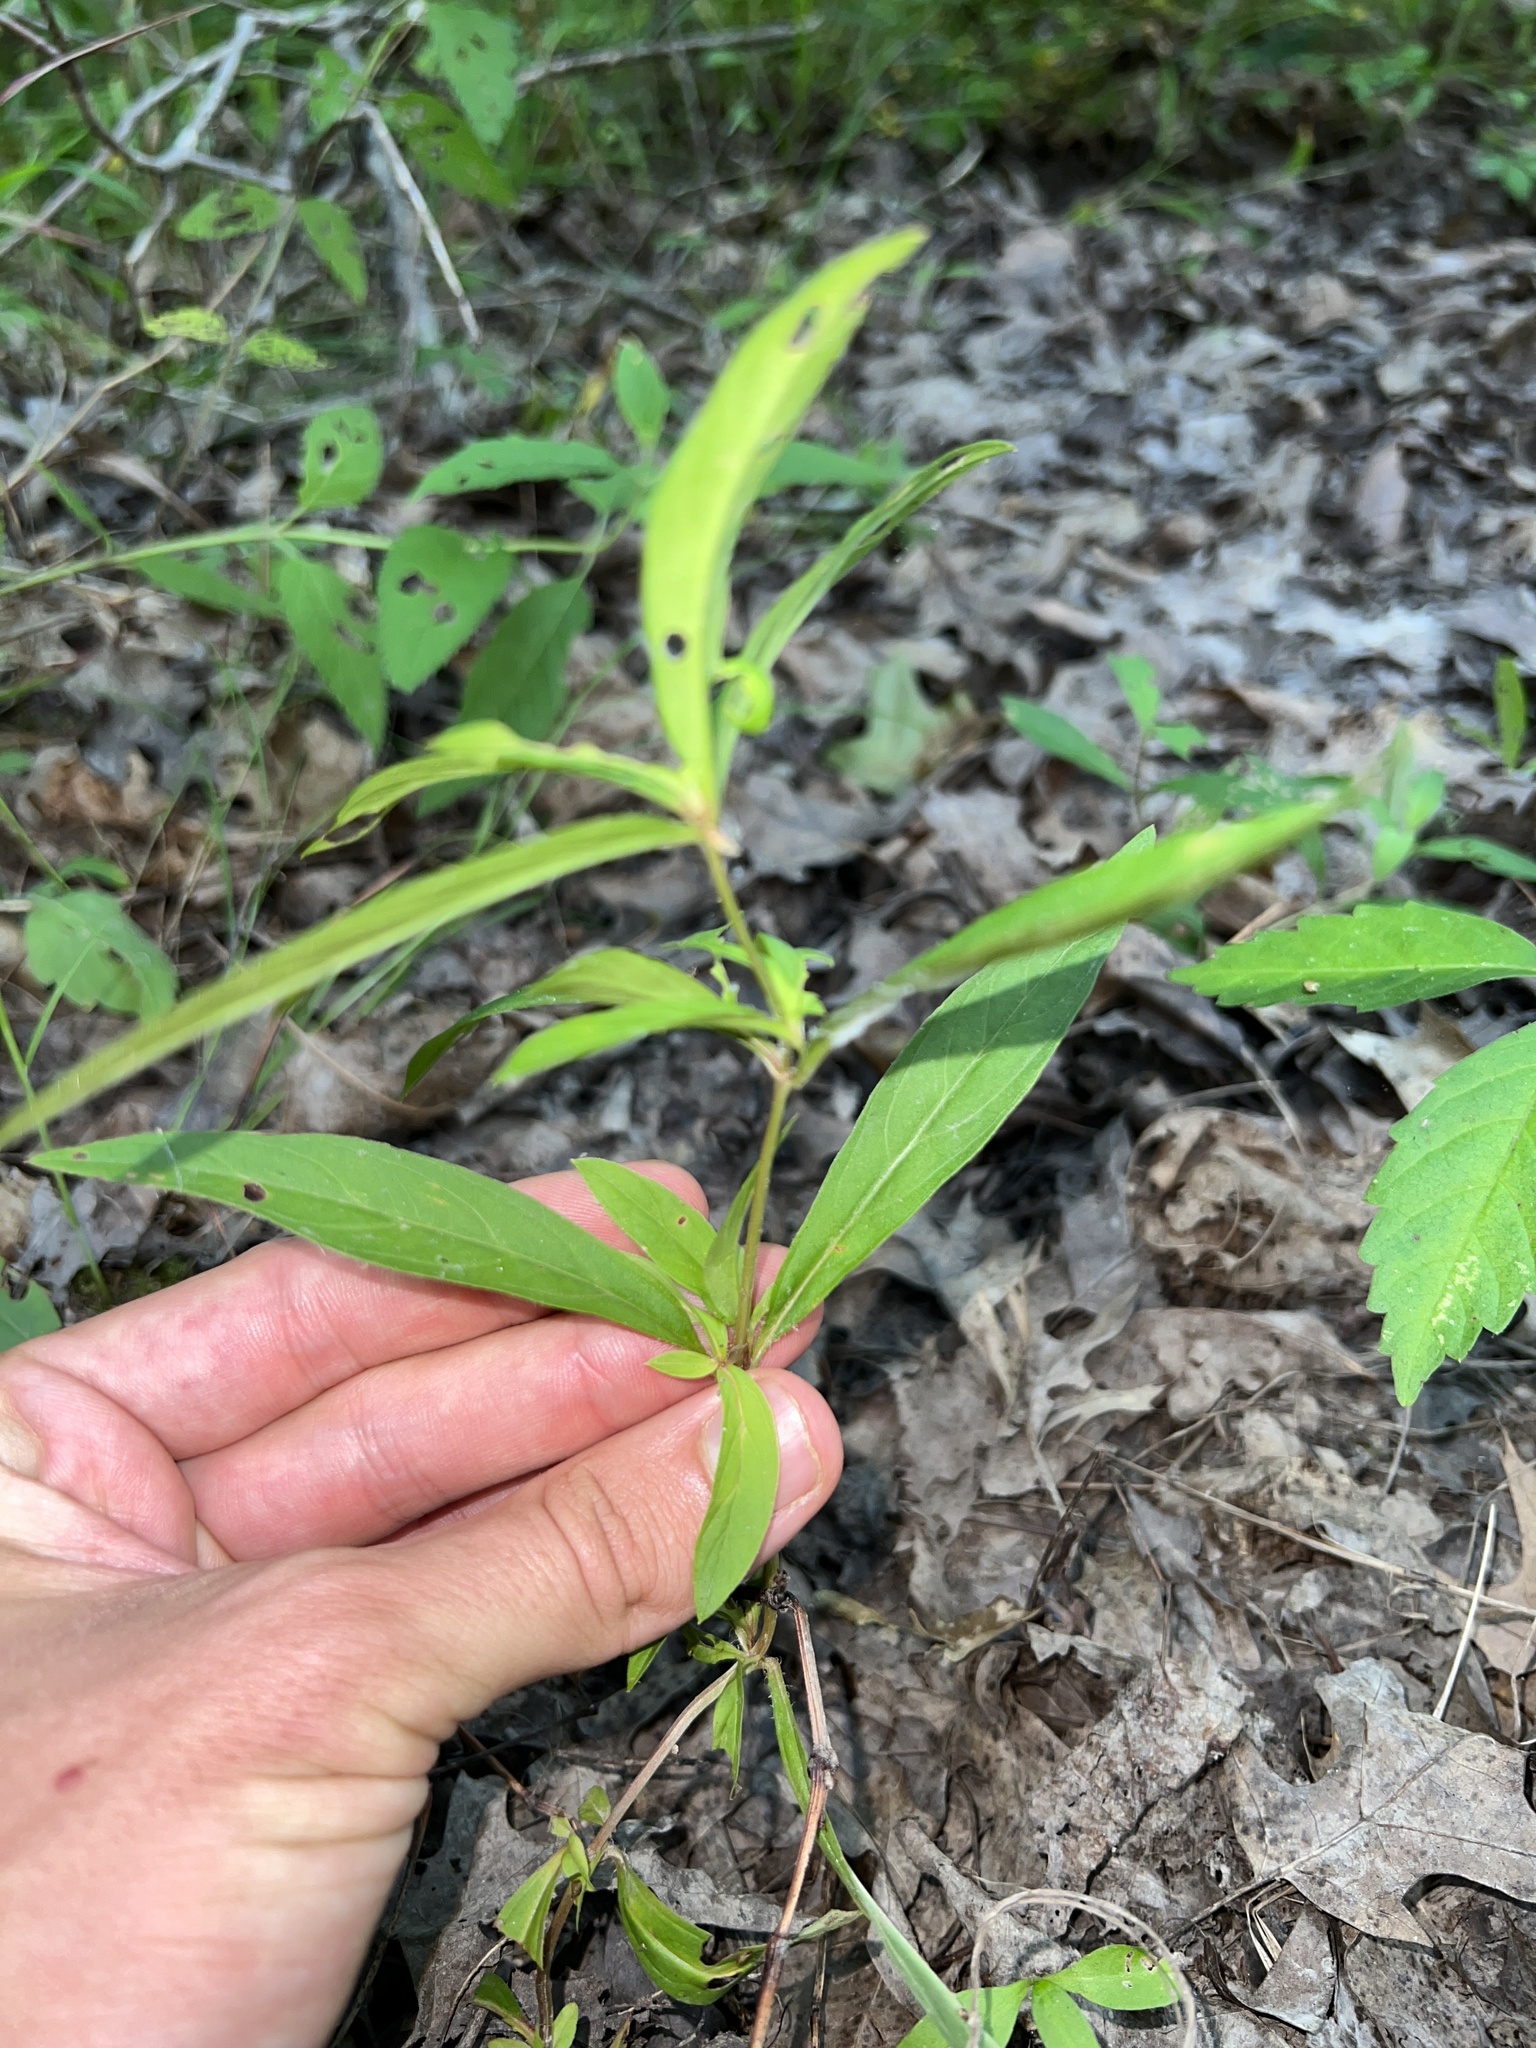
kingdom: Plantae
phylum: Tracheophyta
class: Magnoliopsida
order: Ericales
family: Primulaceae
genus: Lysimachia
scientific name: Lysimachia lanceolata
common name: Lance-leaved loosestrife
